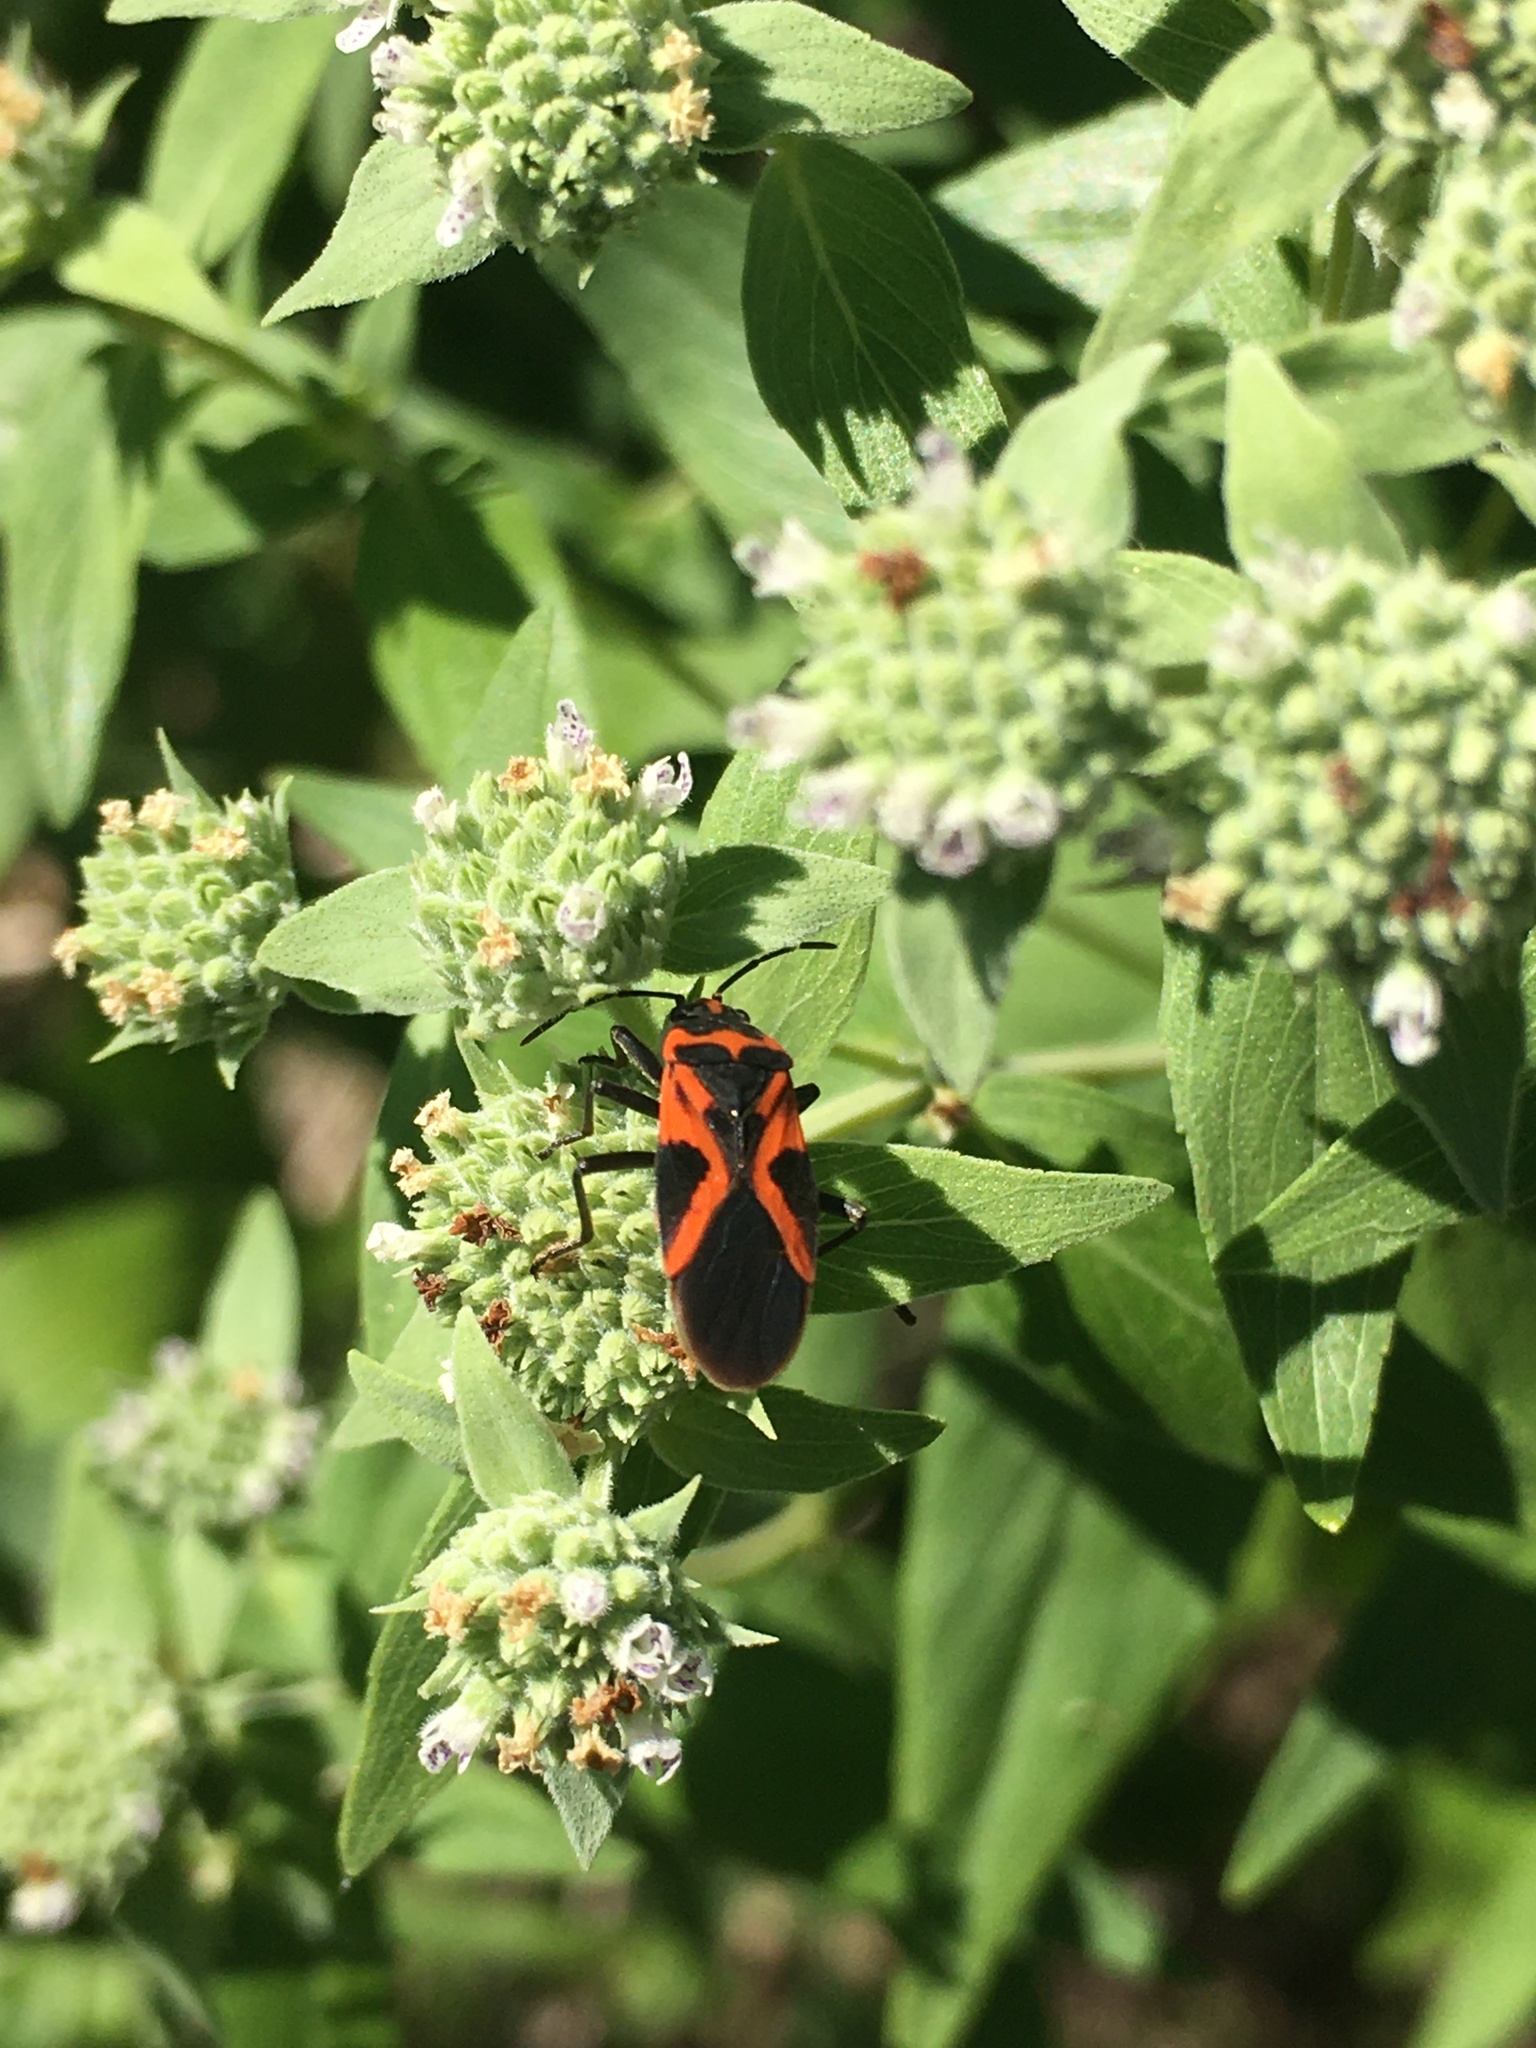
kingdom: Animalia
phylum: Arthropoda
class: Insecta
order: Hemiptera
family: Lygaeidae
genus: Lygaeus
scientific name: Lygaeus turcicus
